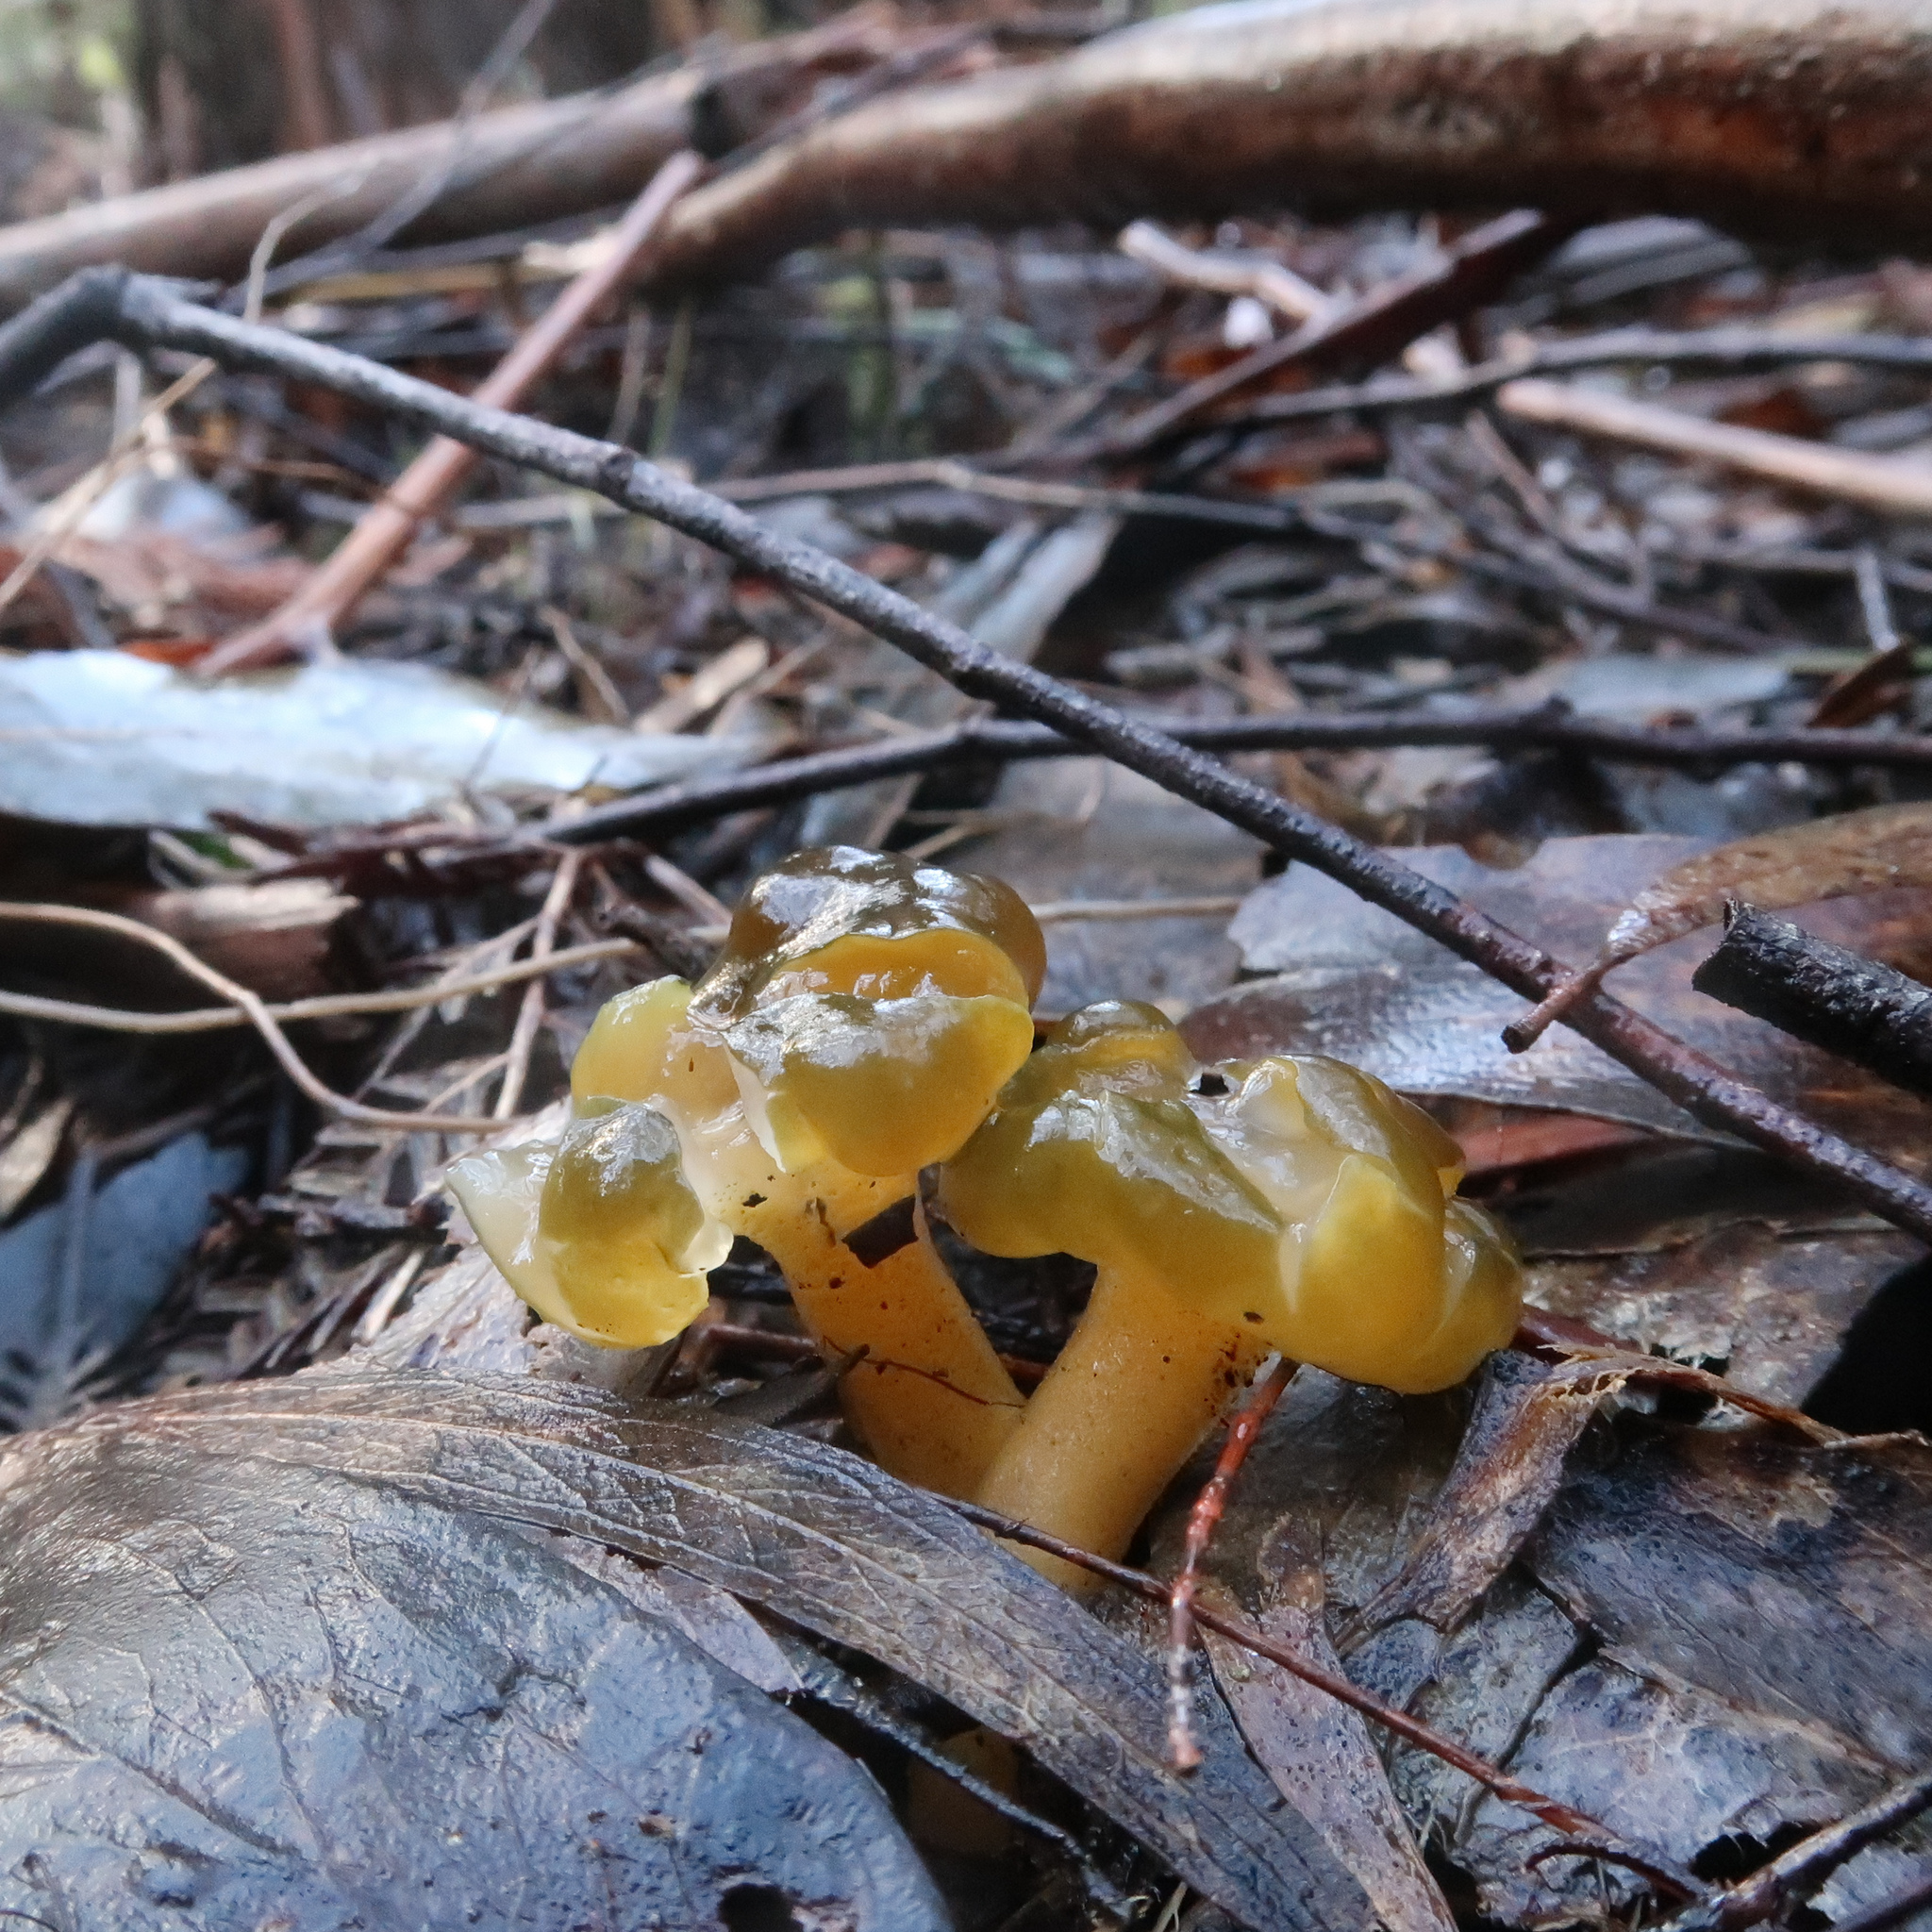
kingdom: Fungi
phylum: Ascomycota
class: Leotiomycetes
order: Leotiales
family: Leotiaceae
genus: Leotia
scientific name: Leotia lubrica
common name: Jellybaby
